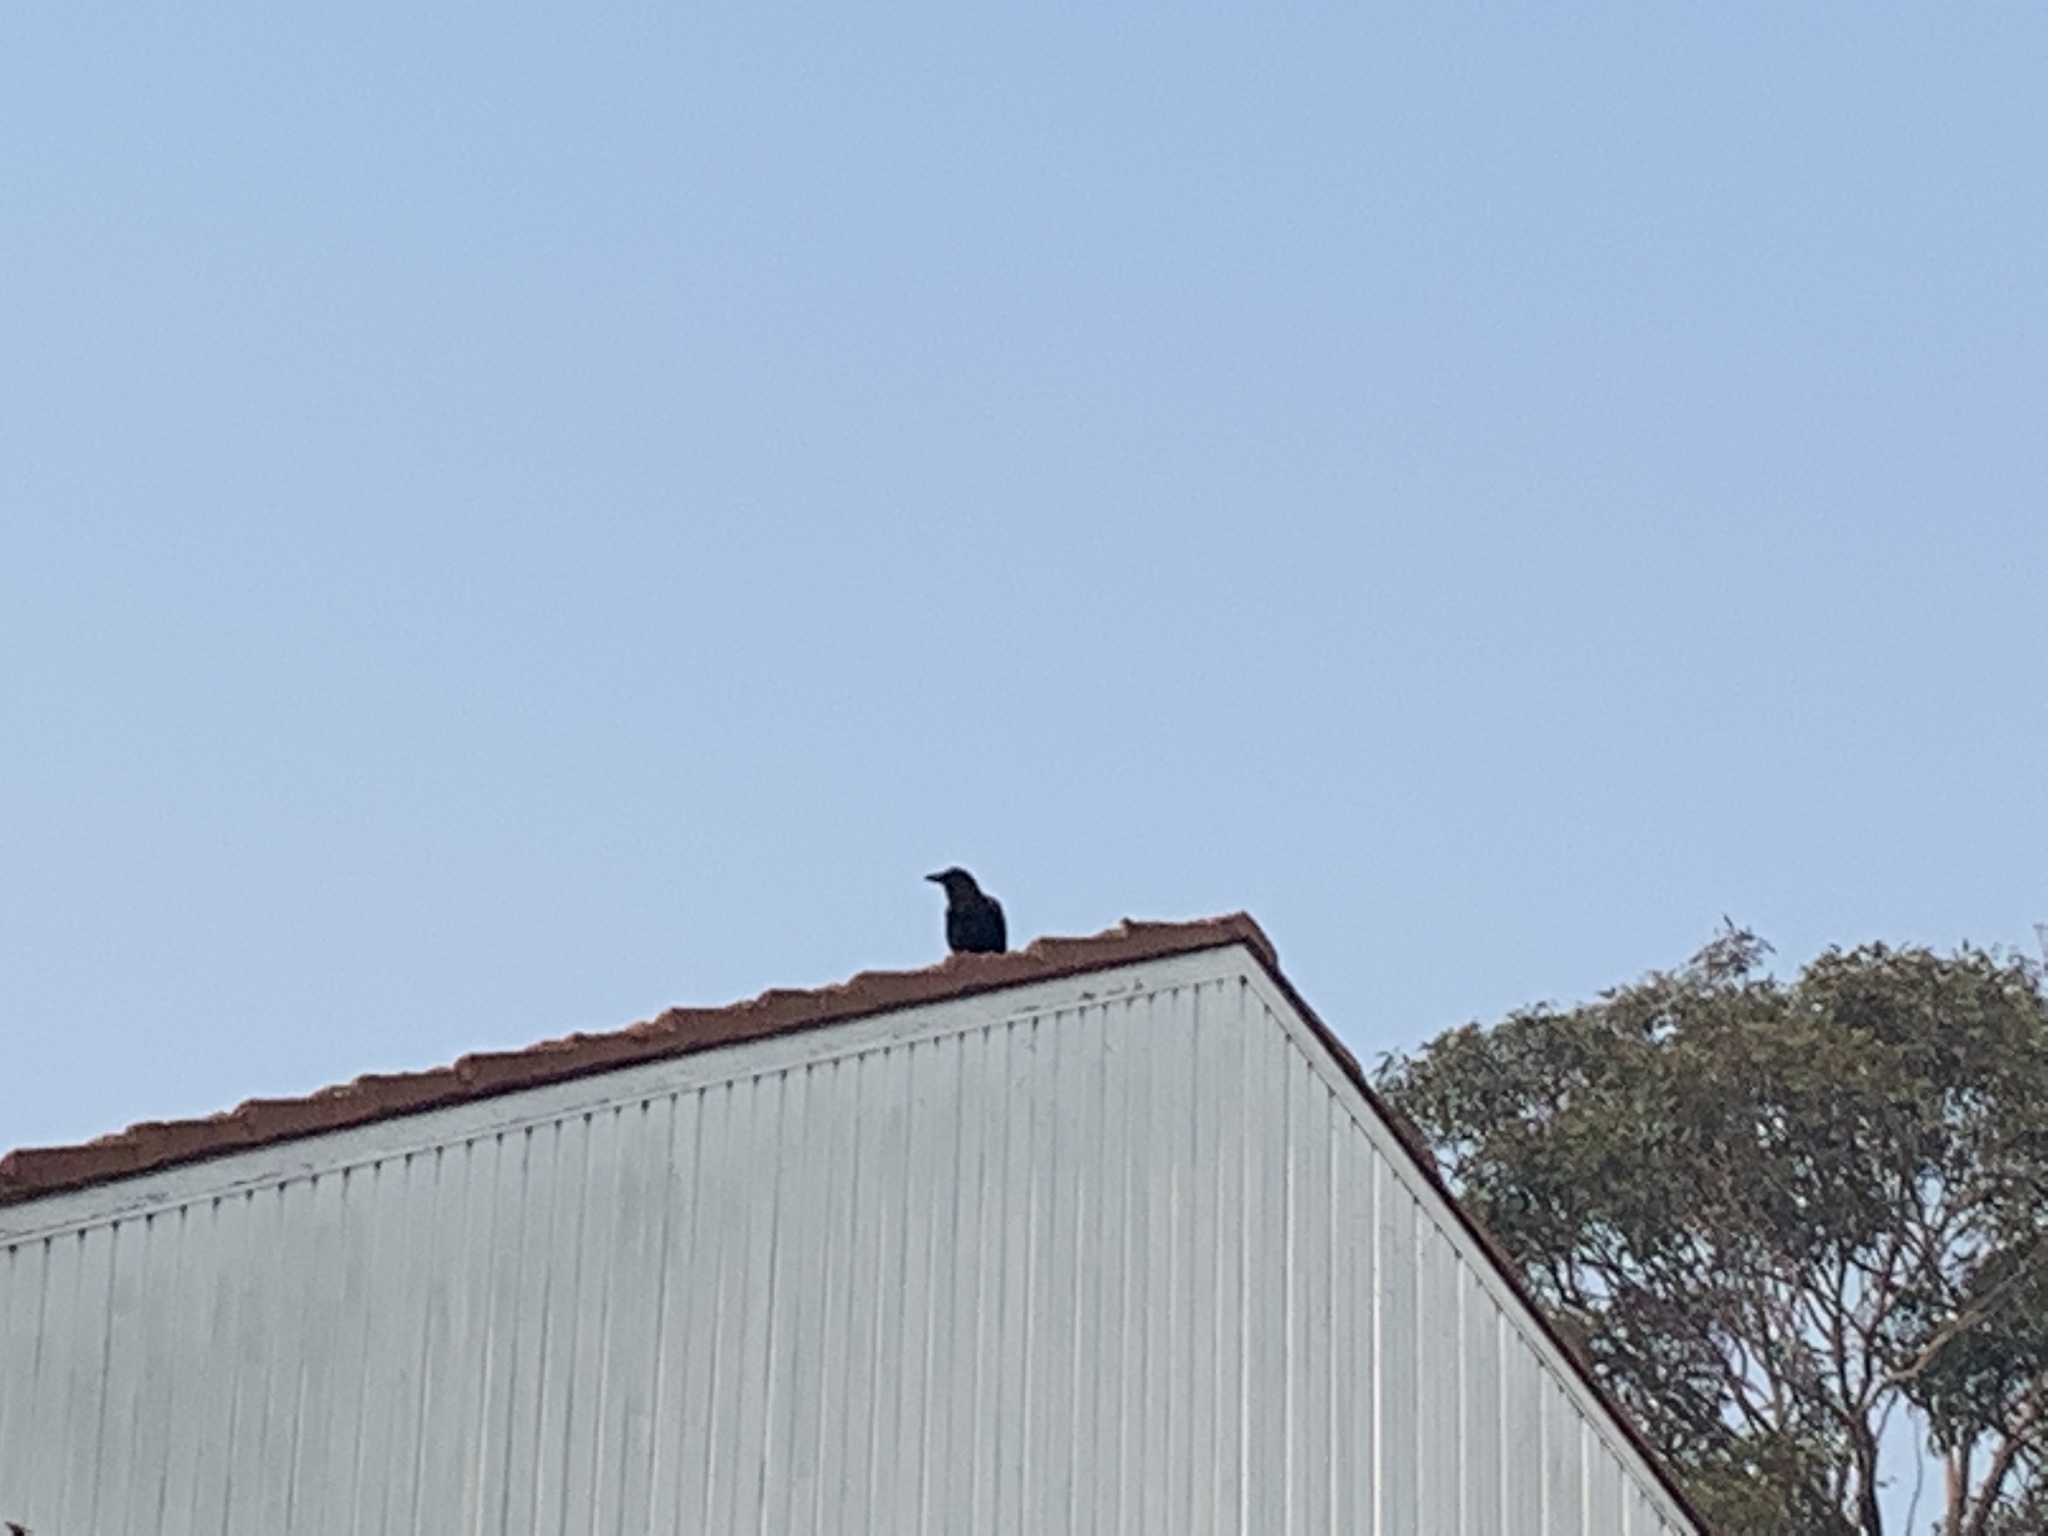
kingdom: Animalia
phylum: Chordata
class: Aves
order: Passeriformes
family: Corvidae
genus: Corvus
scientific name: Corvus coronoides
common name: Australian raven
